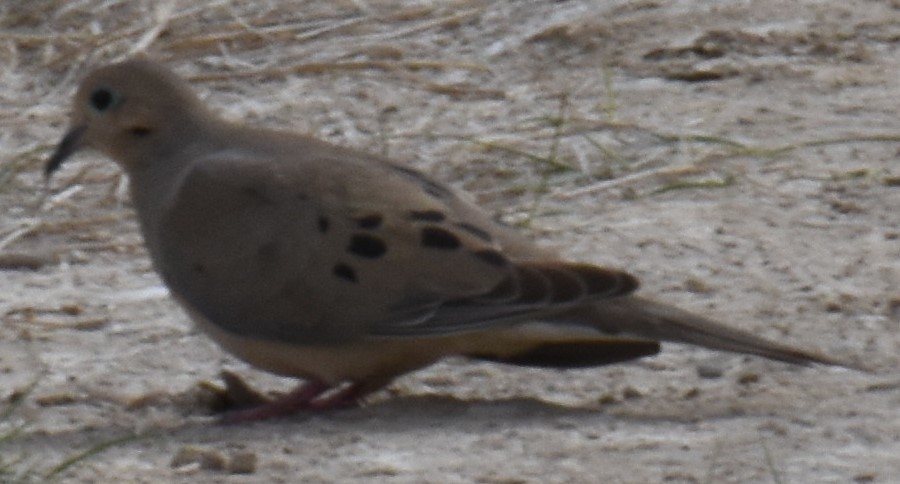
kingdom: Animalia
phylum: Chordata
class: Aves
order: Columbiformes
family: Columbidae
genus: Zenaida
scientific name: Zenaida macroura
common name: Mourning dove
